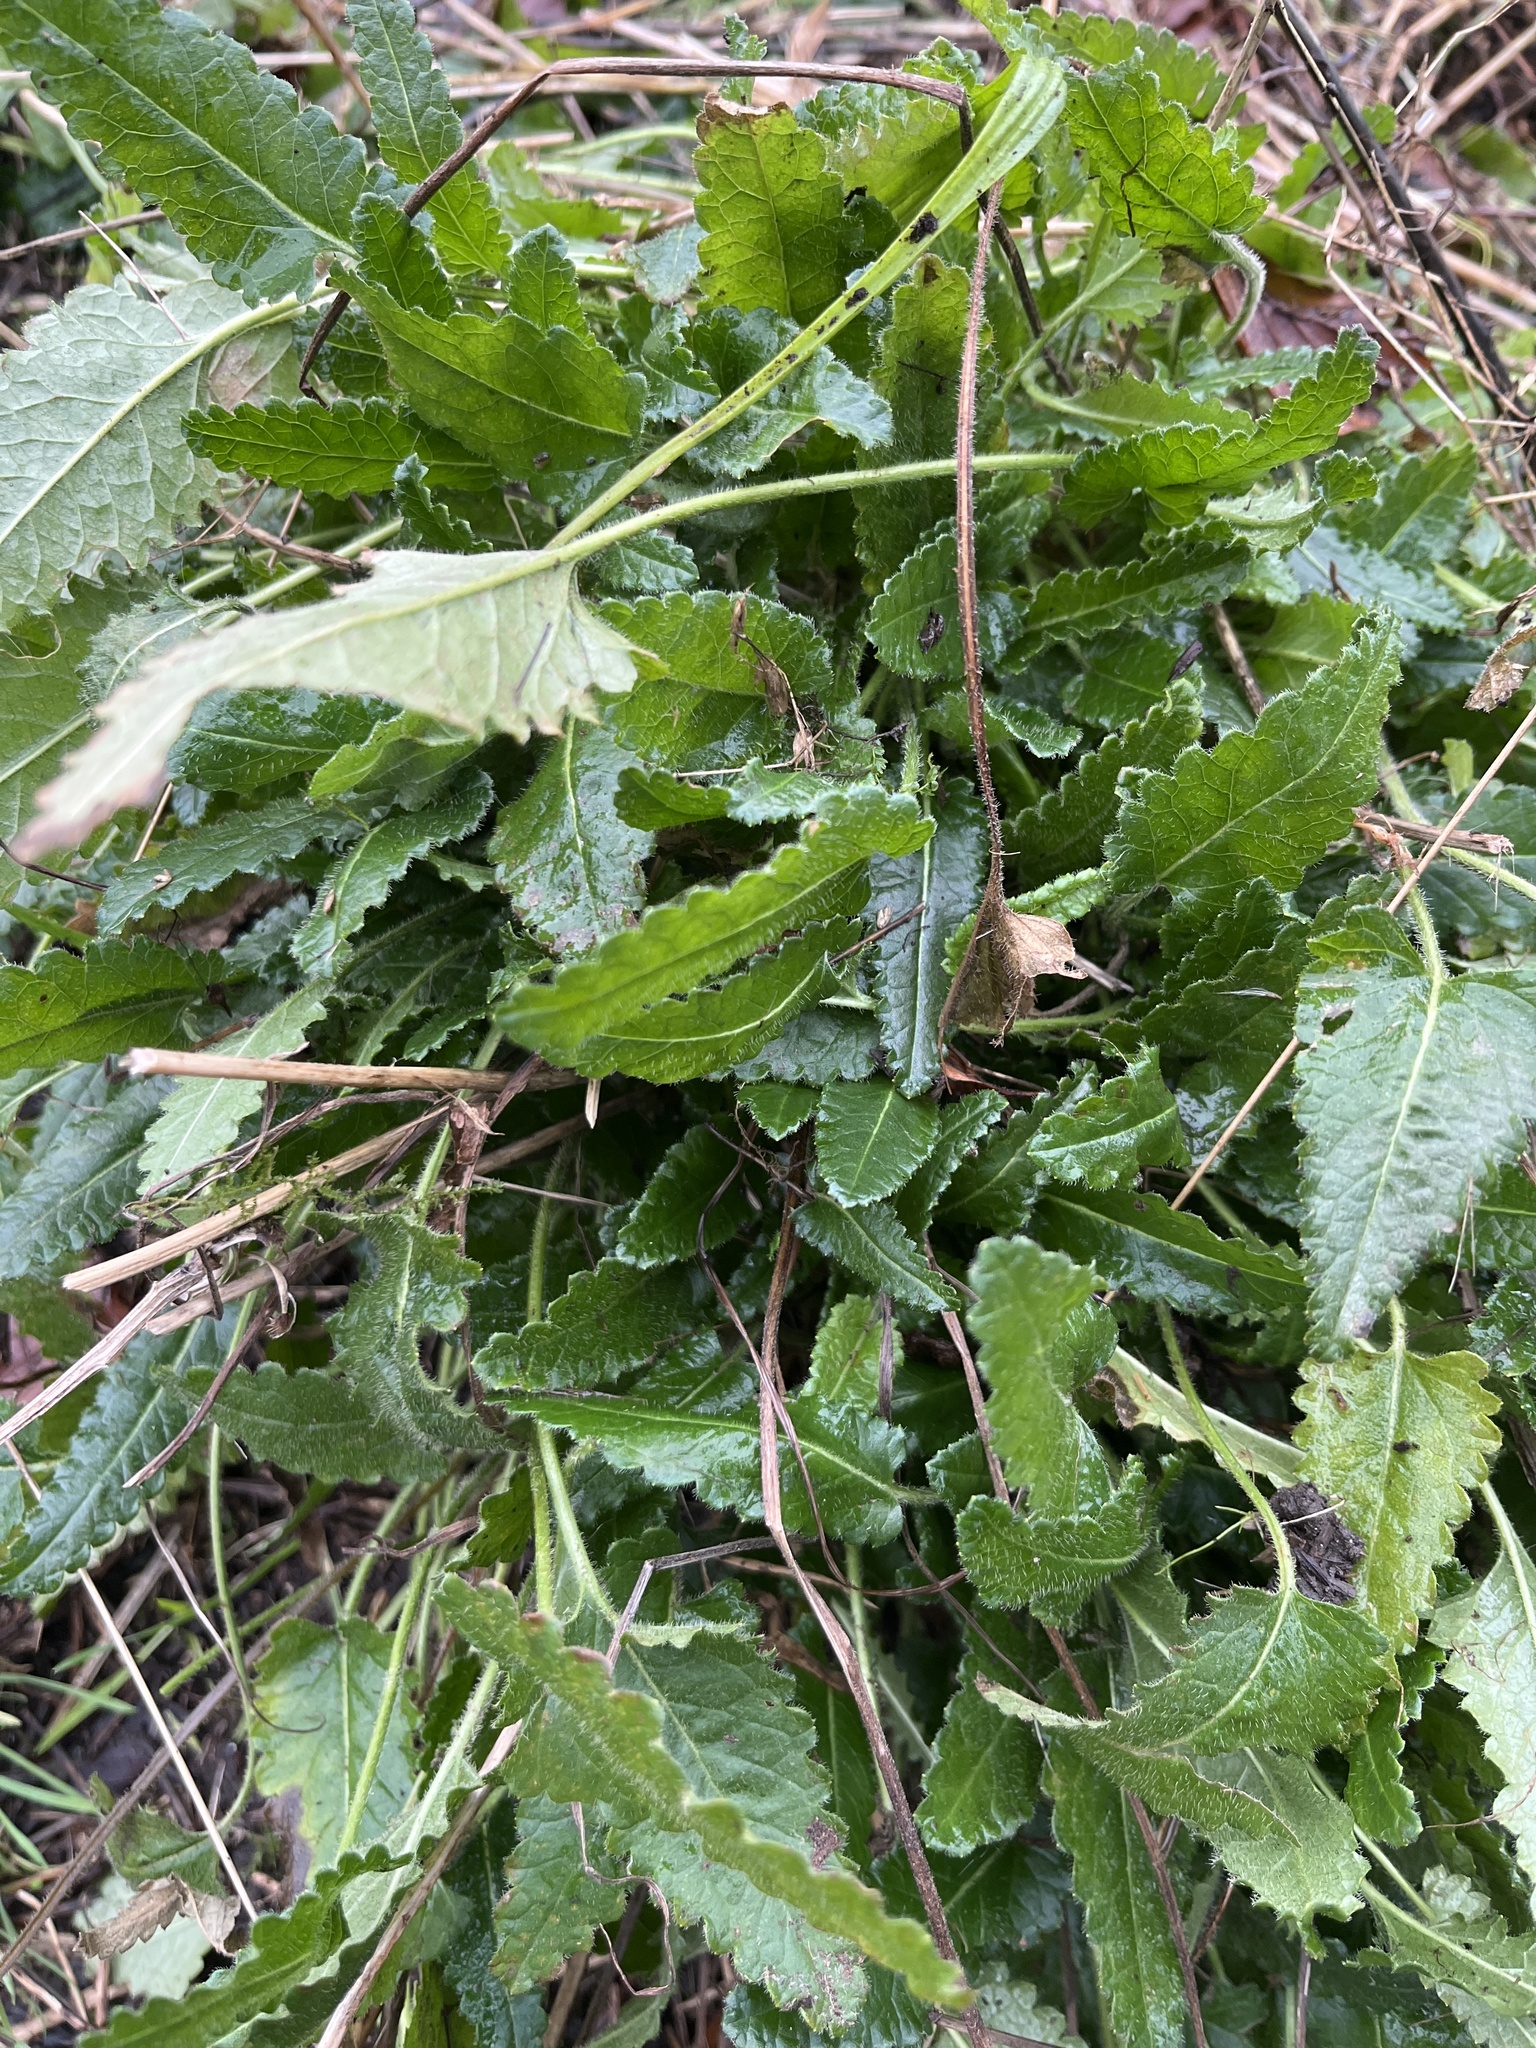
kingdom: Plantae
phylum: Tracheophyta
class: Magnoliopsida
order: Lamiales
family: Lamiaceae
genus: Betonica
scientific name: Betonica officinalis
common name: Bishop's-wort
